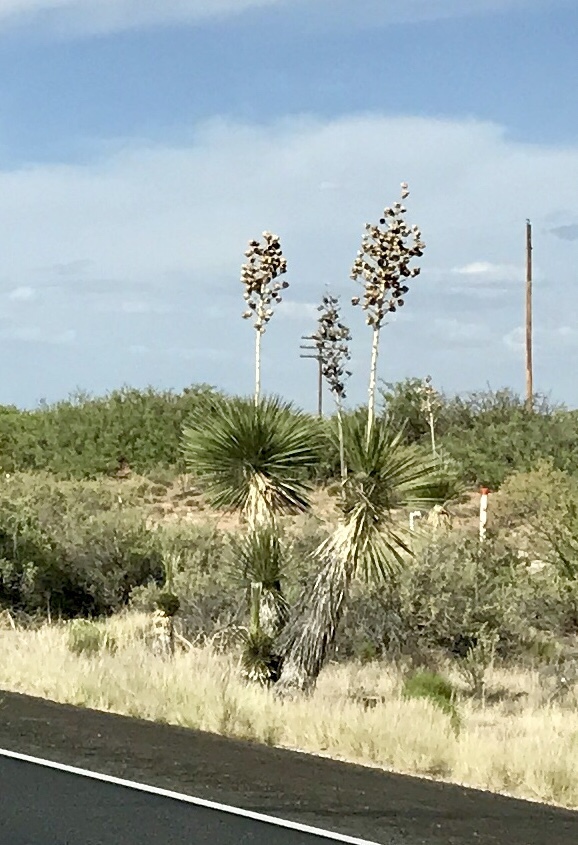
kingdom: Plantae
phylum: Tracheophyta
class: Liliopsida
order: Asparagales
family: Asparagaceae
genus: Yucca
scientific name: Yucca elata
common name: Palmella
